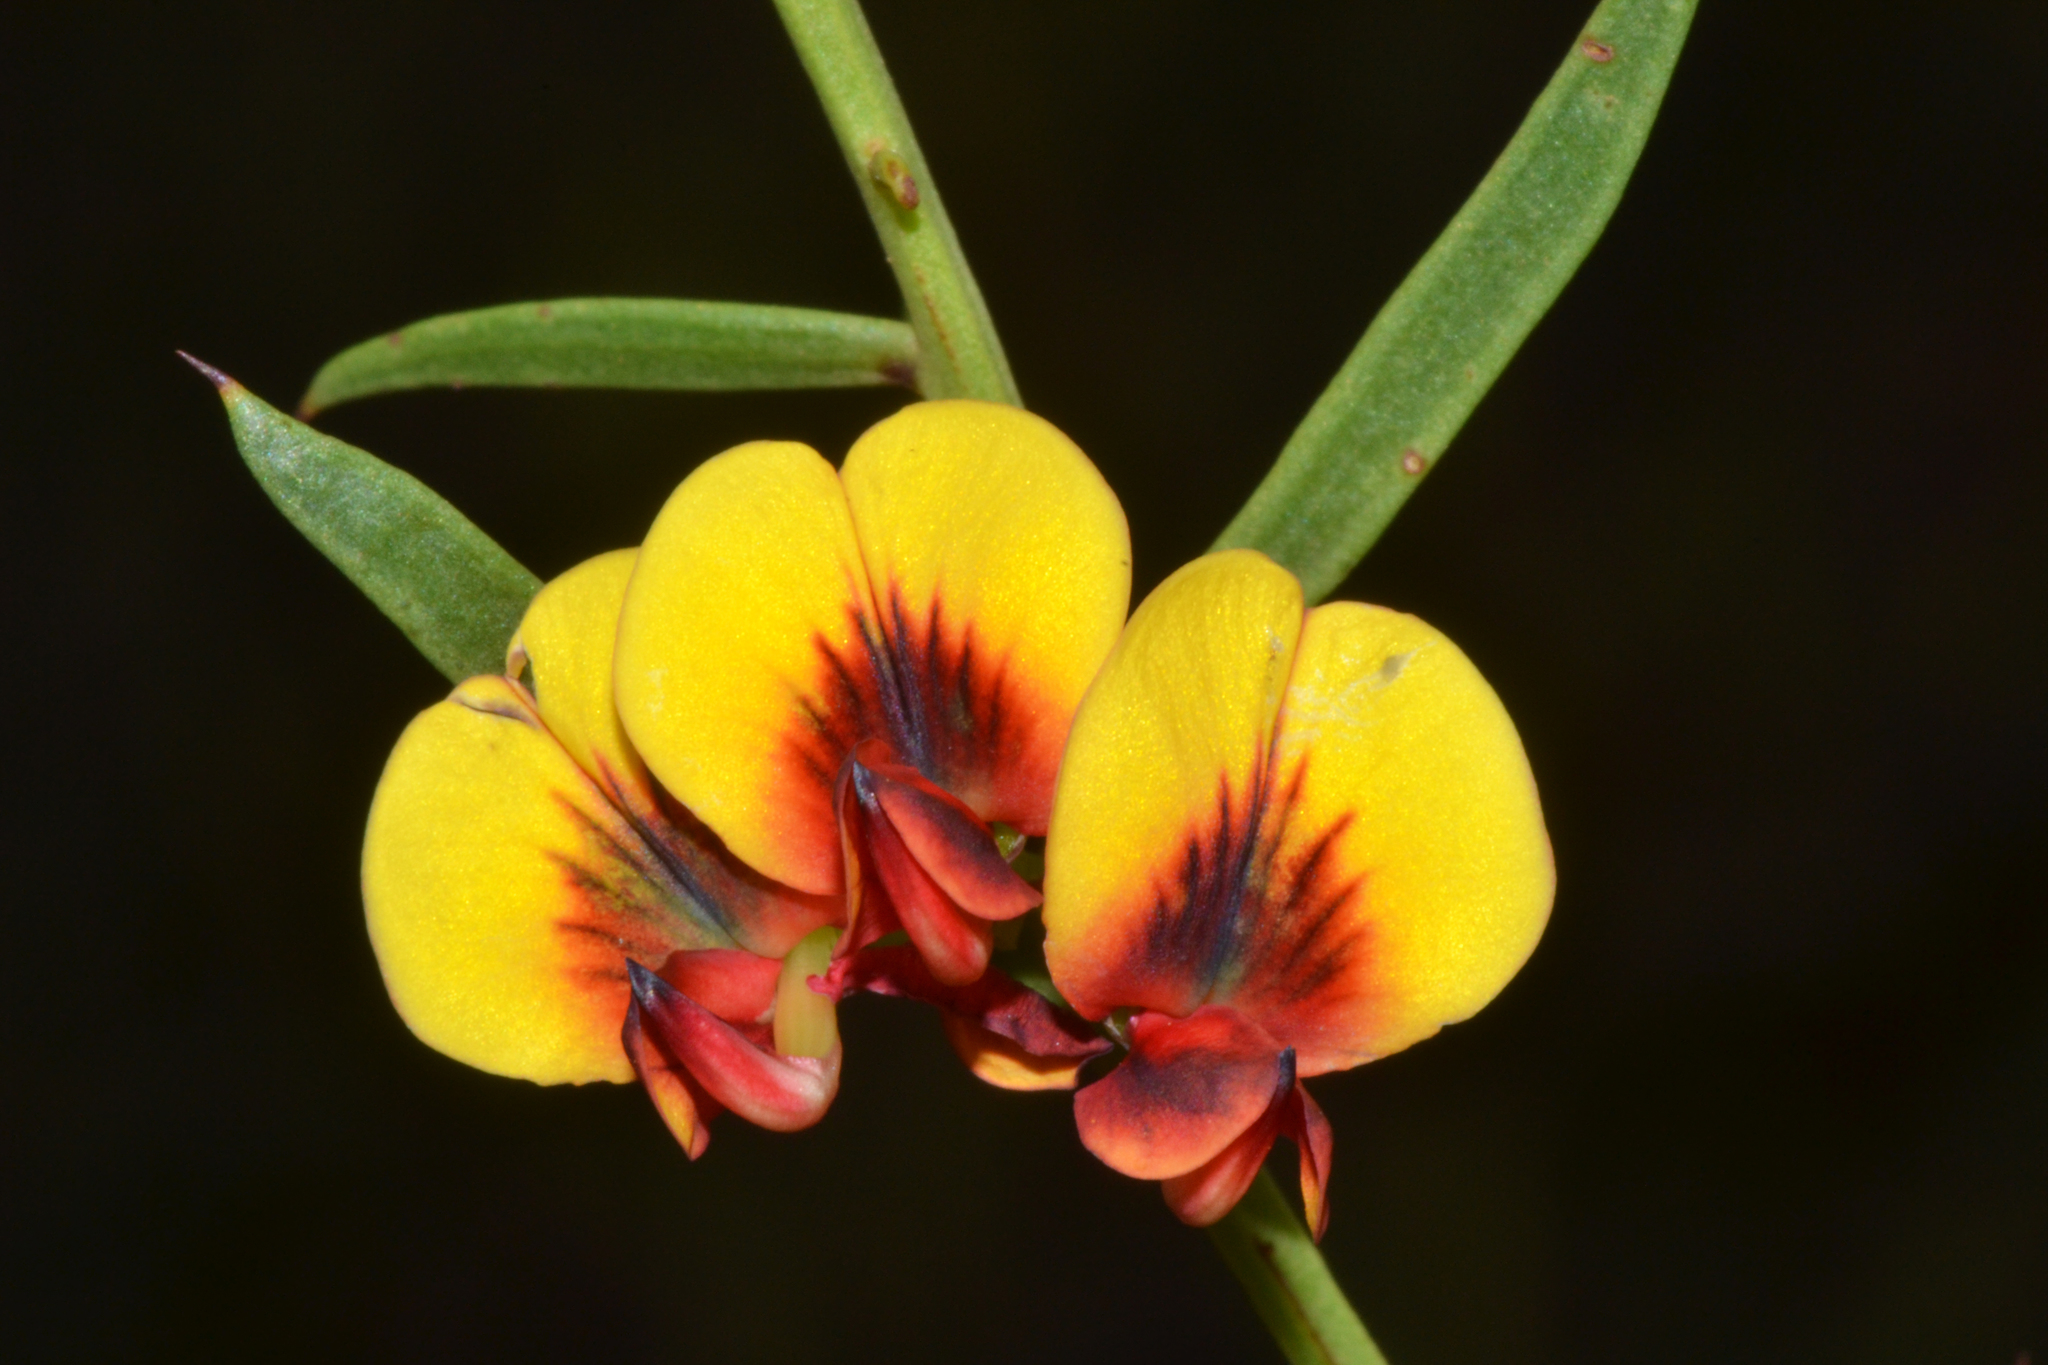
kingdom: Plantae
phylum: Tracheophyta
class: Magnoliopsida
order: Fabales
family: Fabaceae
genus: Daviesia
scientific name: Daviesia angulata
